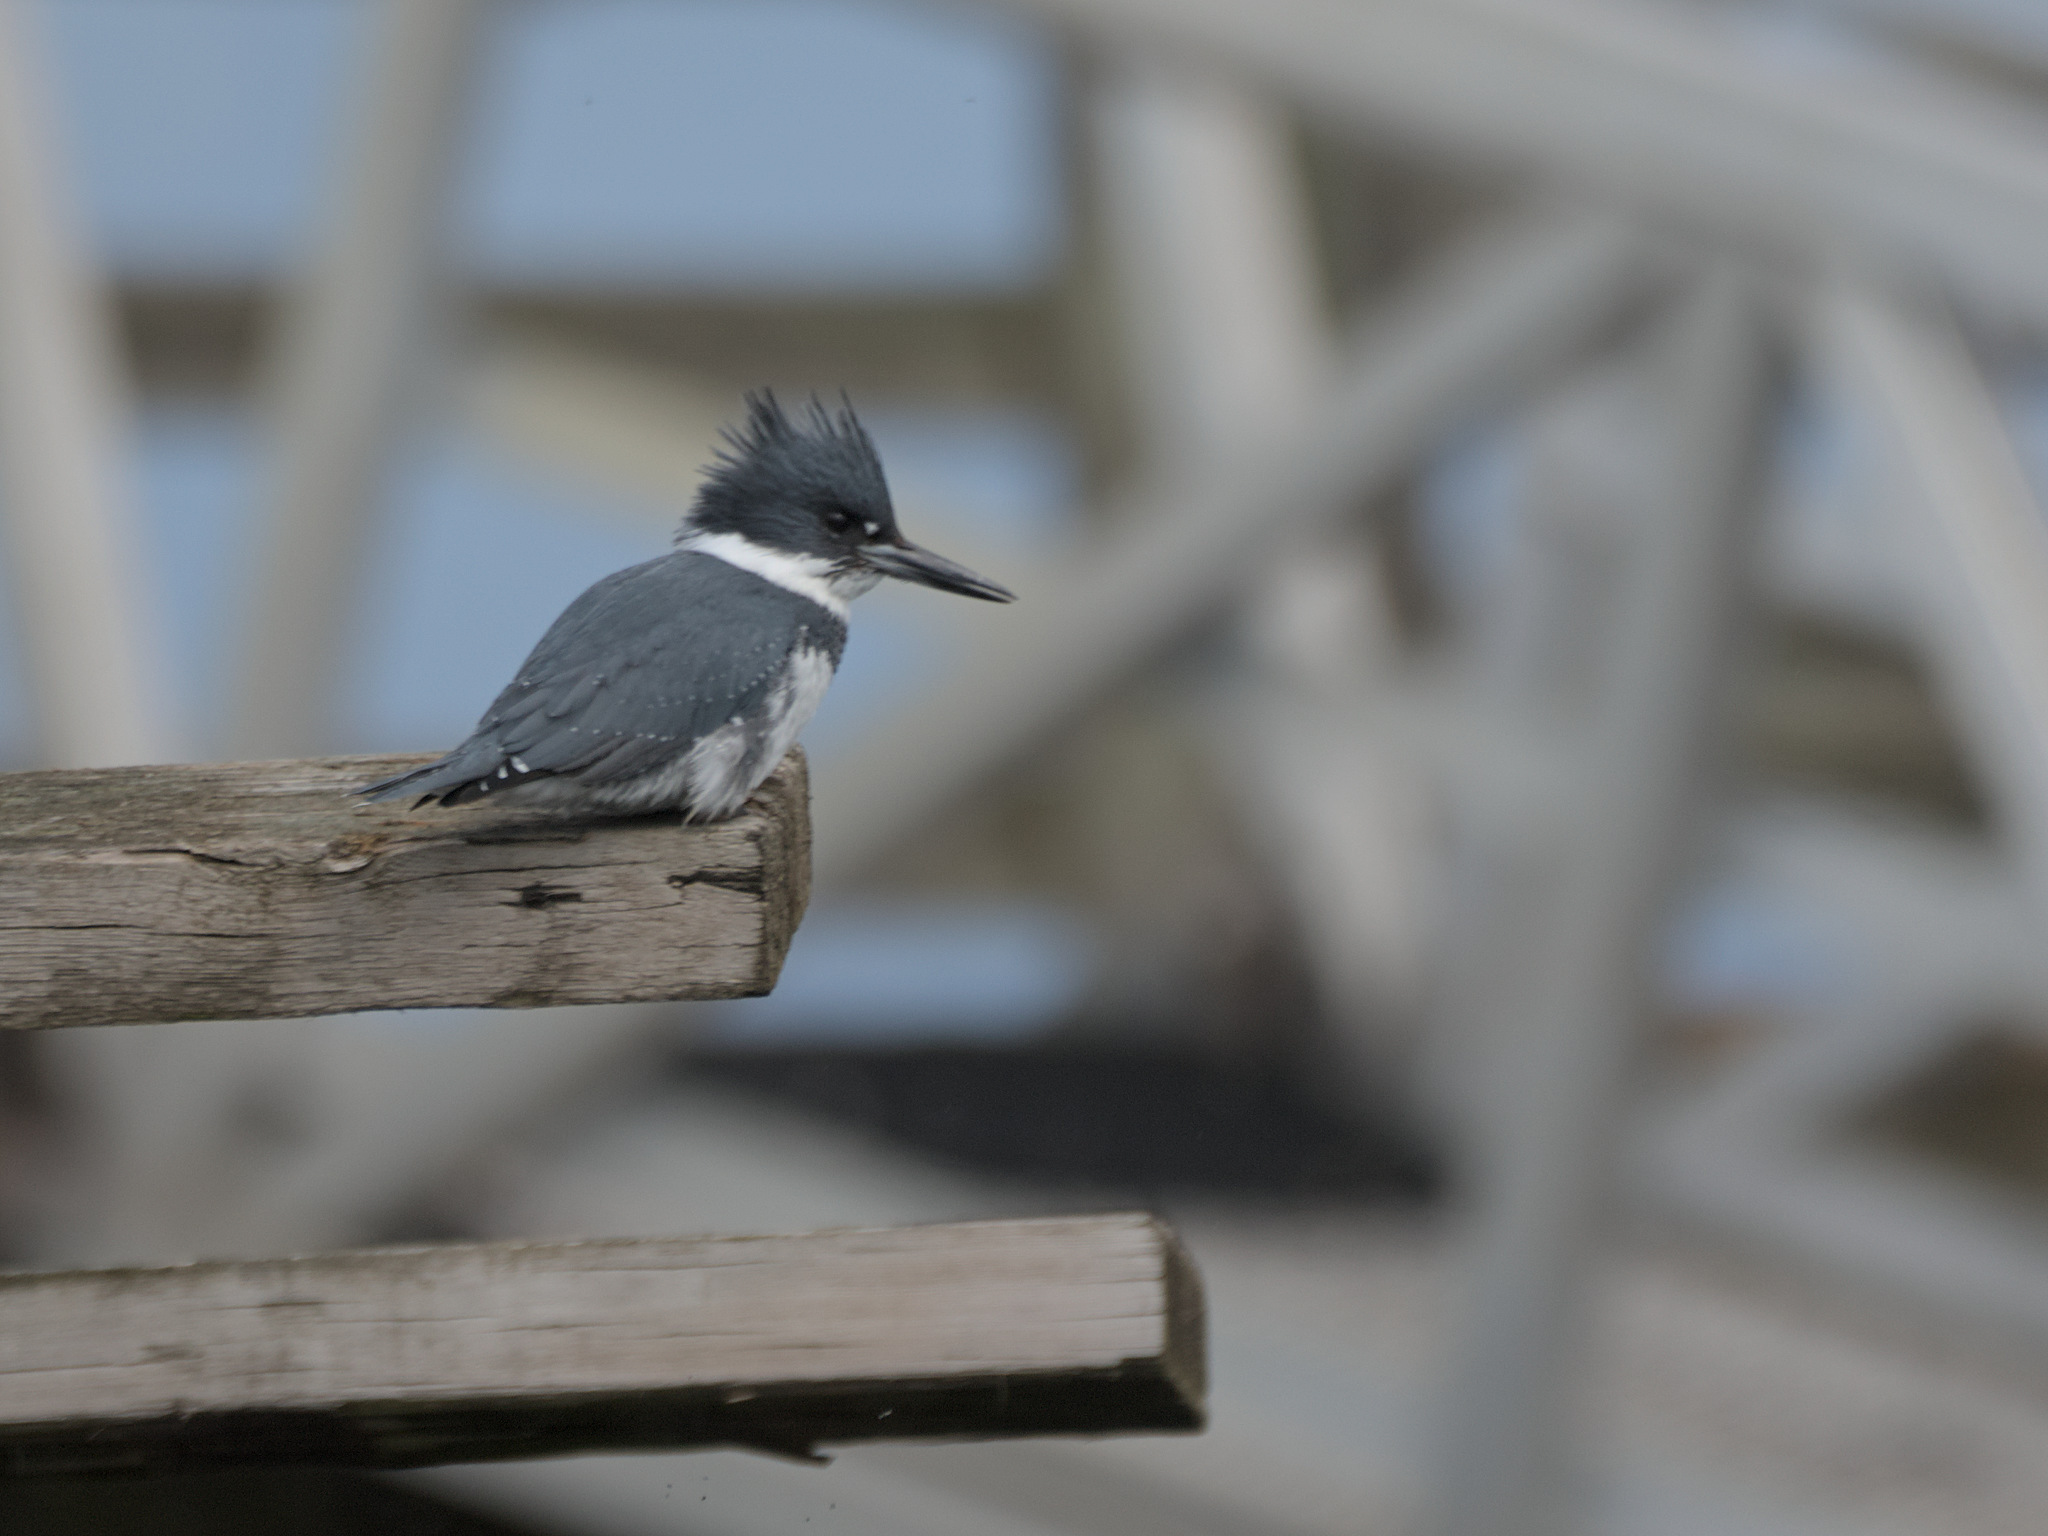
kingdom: Animalia
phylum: Chordata
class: Aves
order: Coraciiformes
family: Alcedinidae
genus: Megaceryle
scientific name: Megaceryle alcyon
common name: Belted kingfisher
